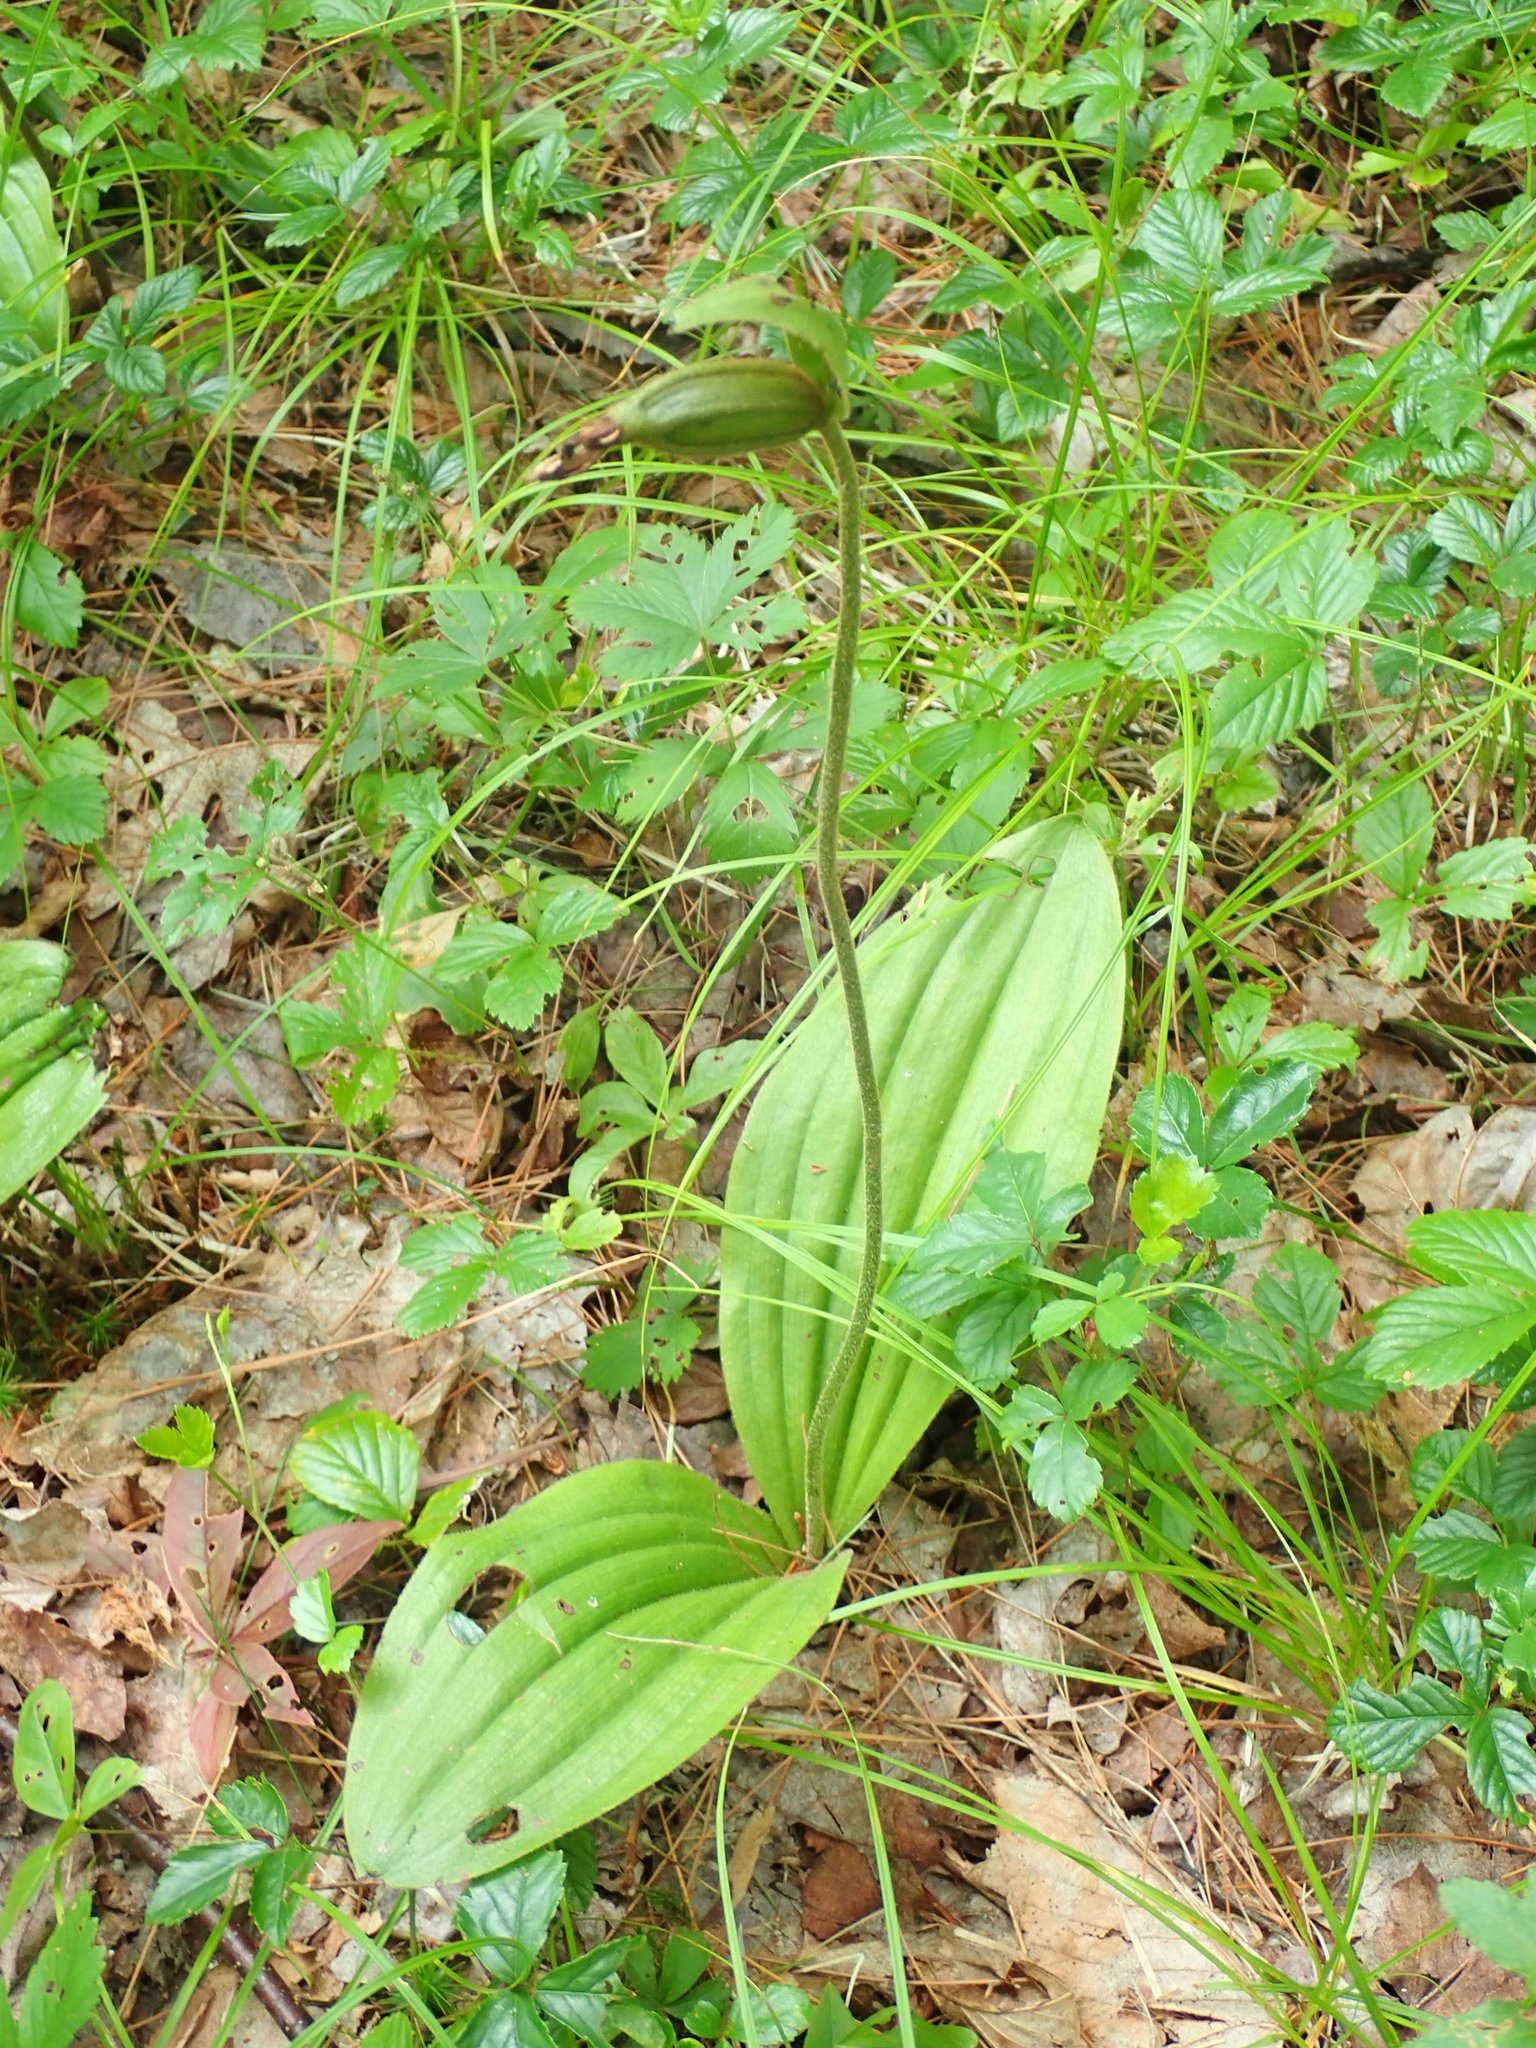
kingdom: Plantae
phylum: Tracheophyta
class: Liliopsida
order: Asparagales
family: Orchidaceae
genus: Cypripedium
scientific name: Cypripedium acaule
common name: Pink lady's-slipper
